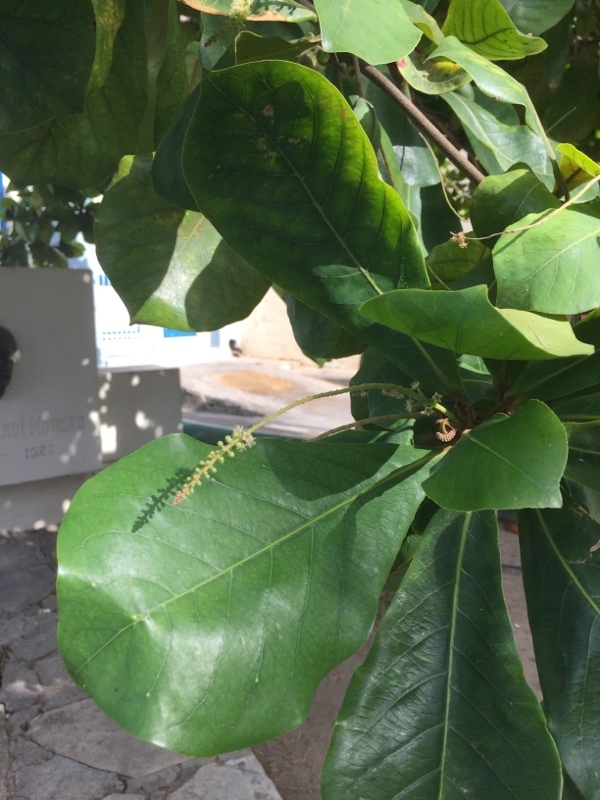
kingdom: Plantae
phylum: Tracheophyta
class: Magnoliopsida
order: Myrtales
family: Combretaceae
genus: Terminalia
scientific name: Terminalia catappa
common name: Tropical almond
